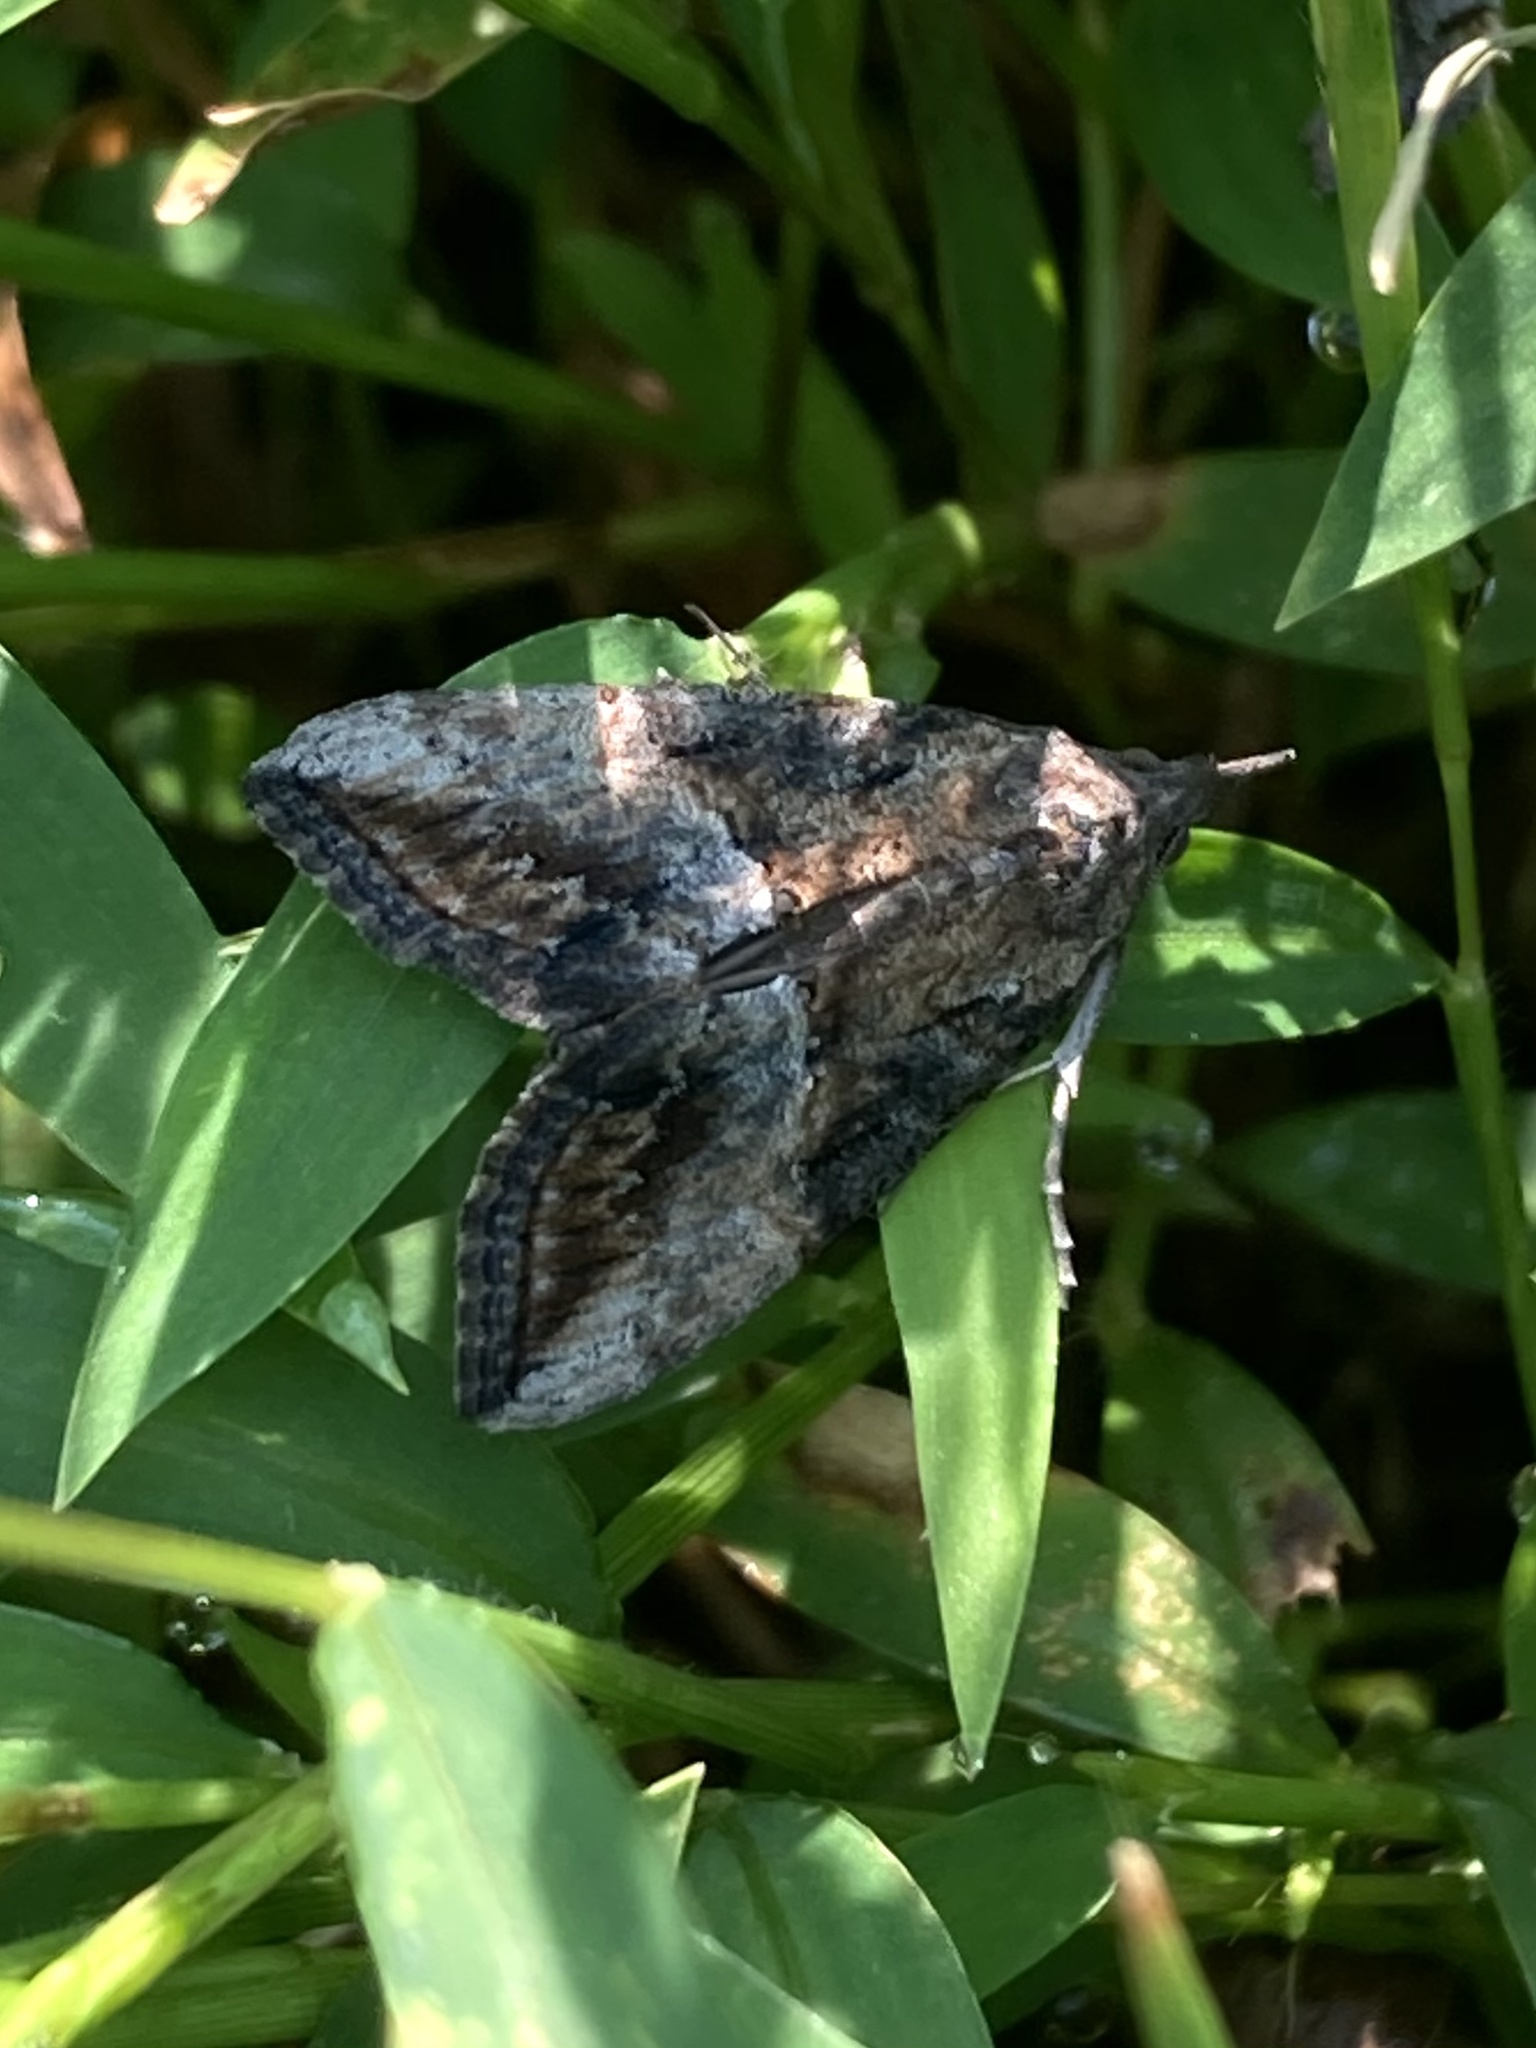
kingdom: Animalia
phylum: Arthropoda
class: Insecta
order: Lepidoptera
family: Erebidae
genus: Hypena
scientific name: Hypena scabra
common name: Green cloverworm
